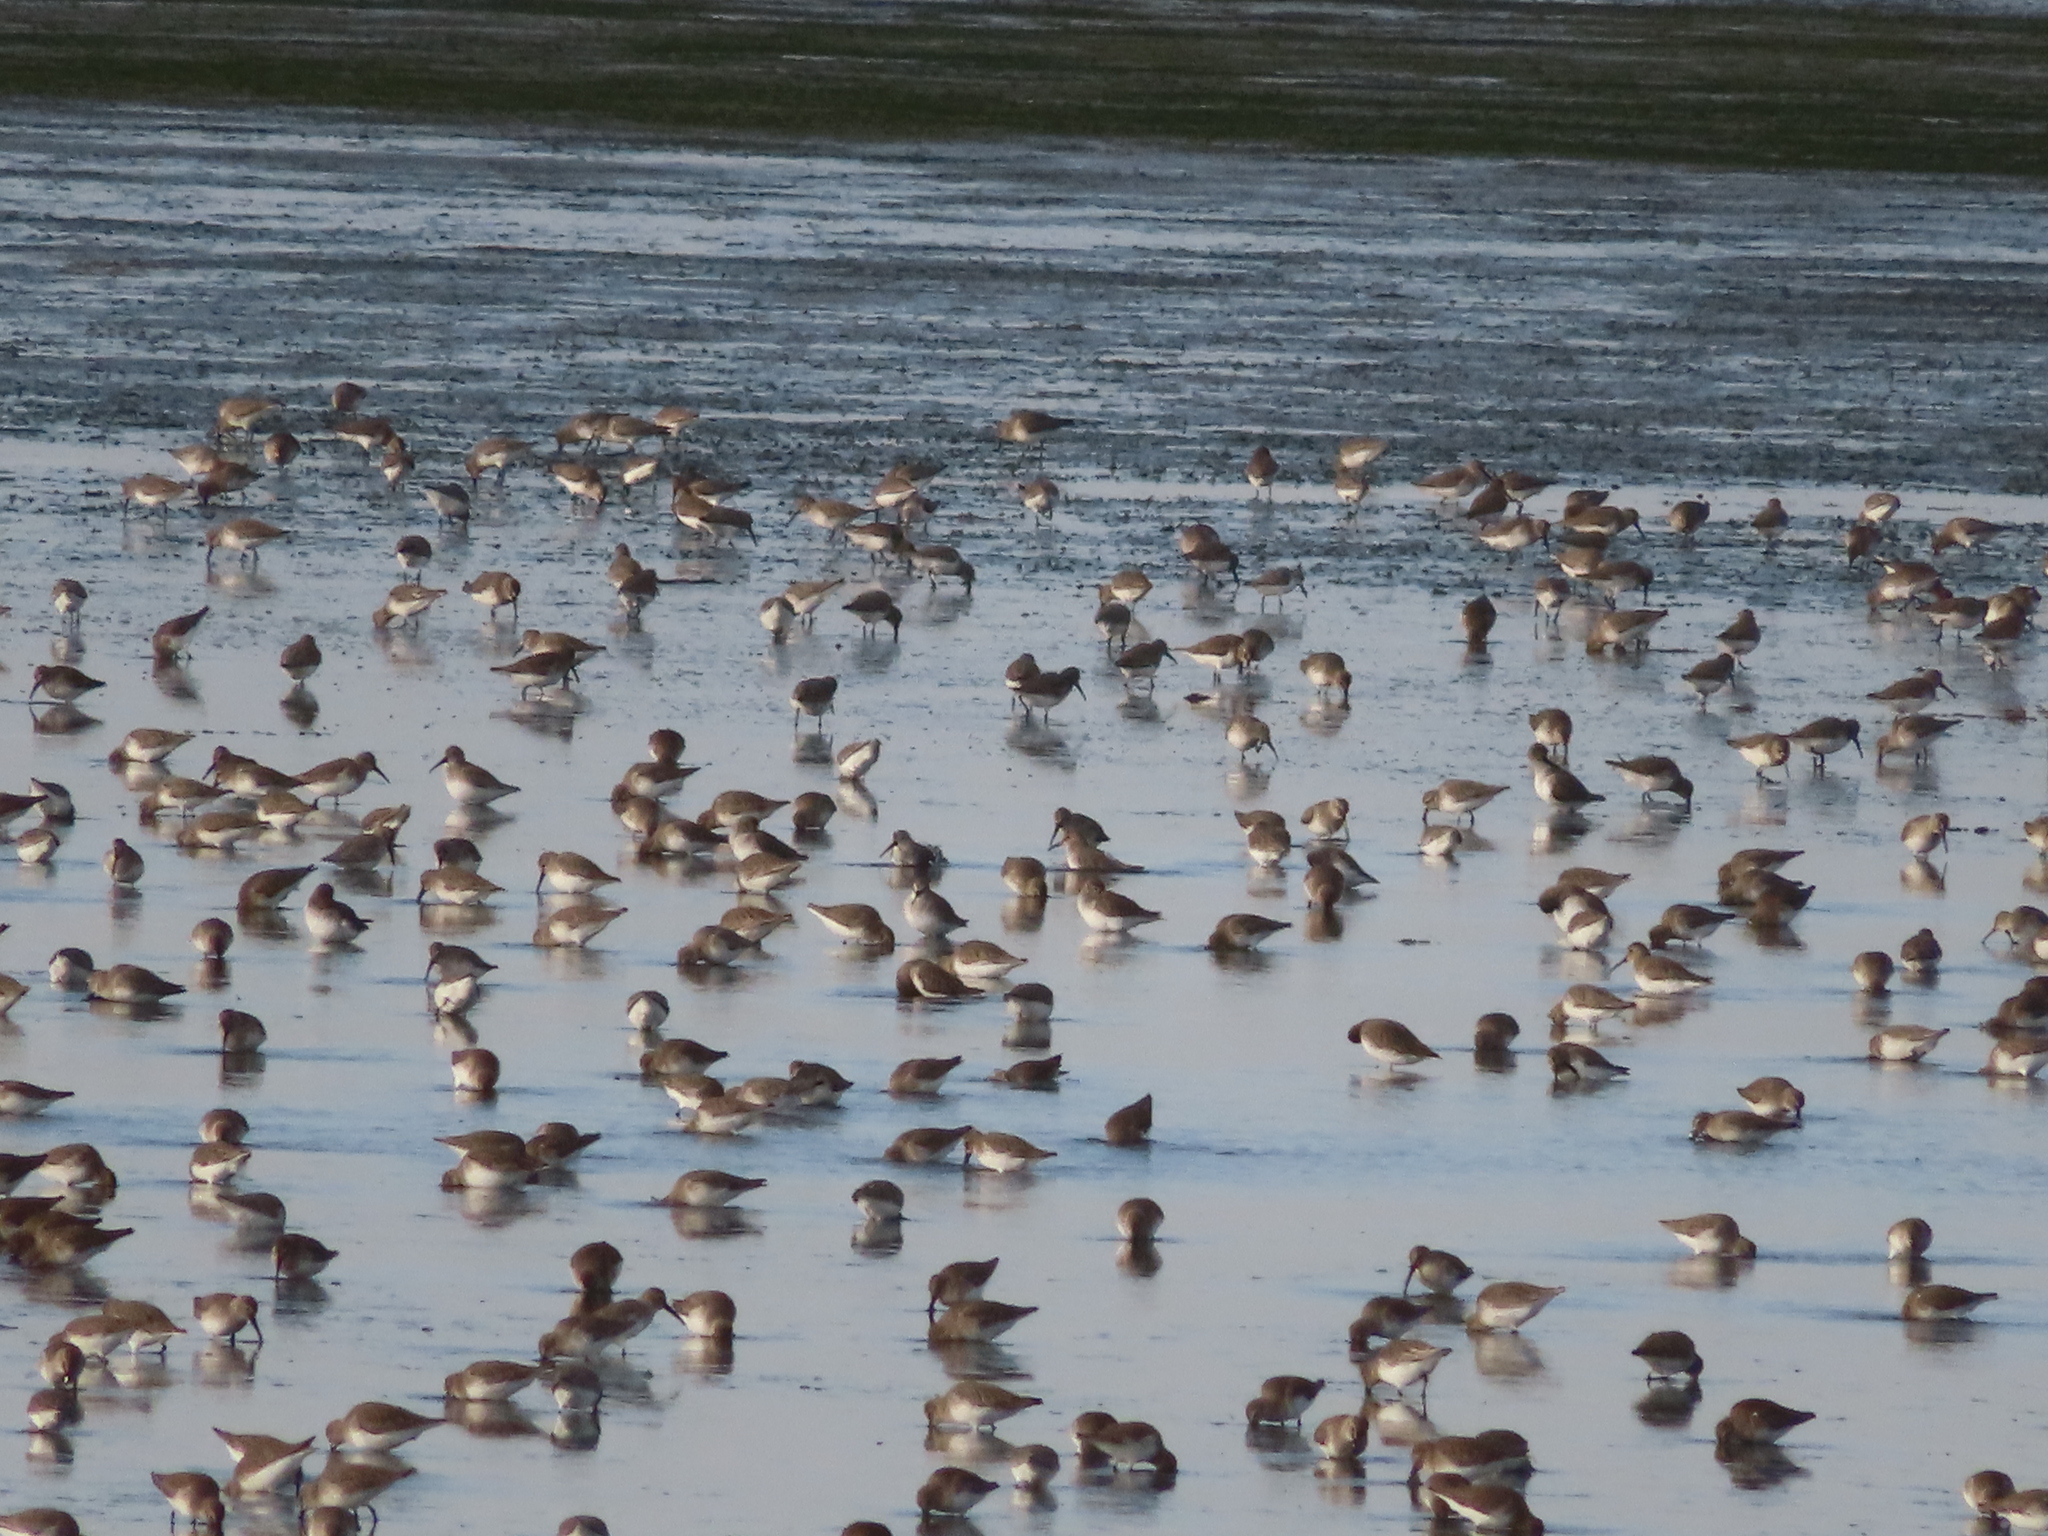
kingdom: Animalia
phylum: Chordata
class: Aves
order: Charadriiformes
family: Scolopacidae
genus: Calidris
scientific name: Calidris alpina
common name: Dunlin
